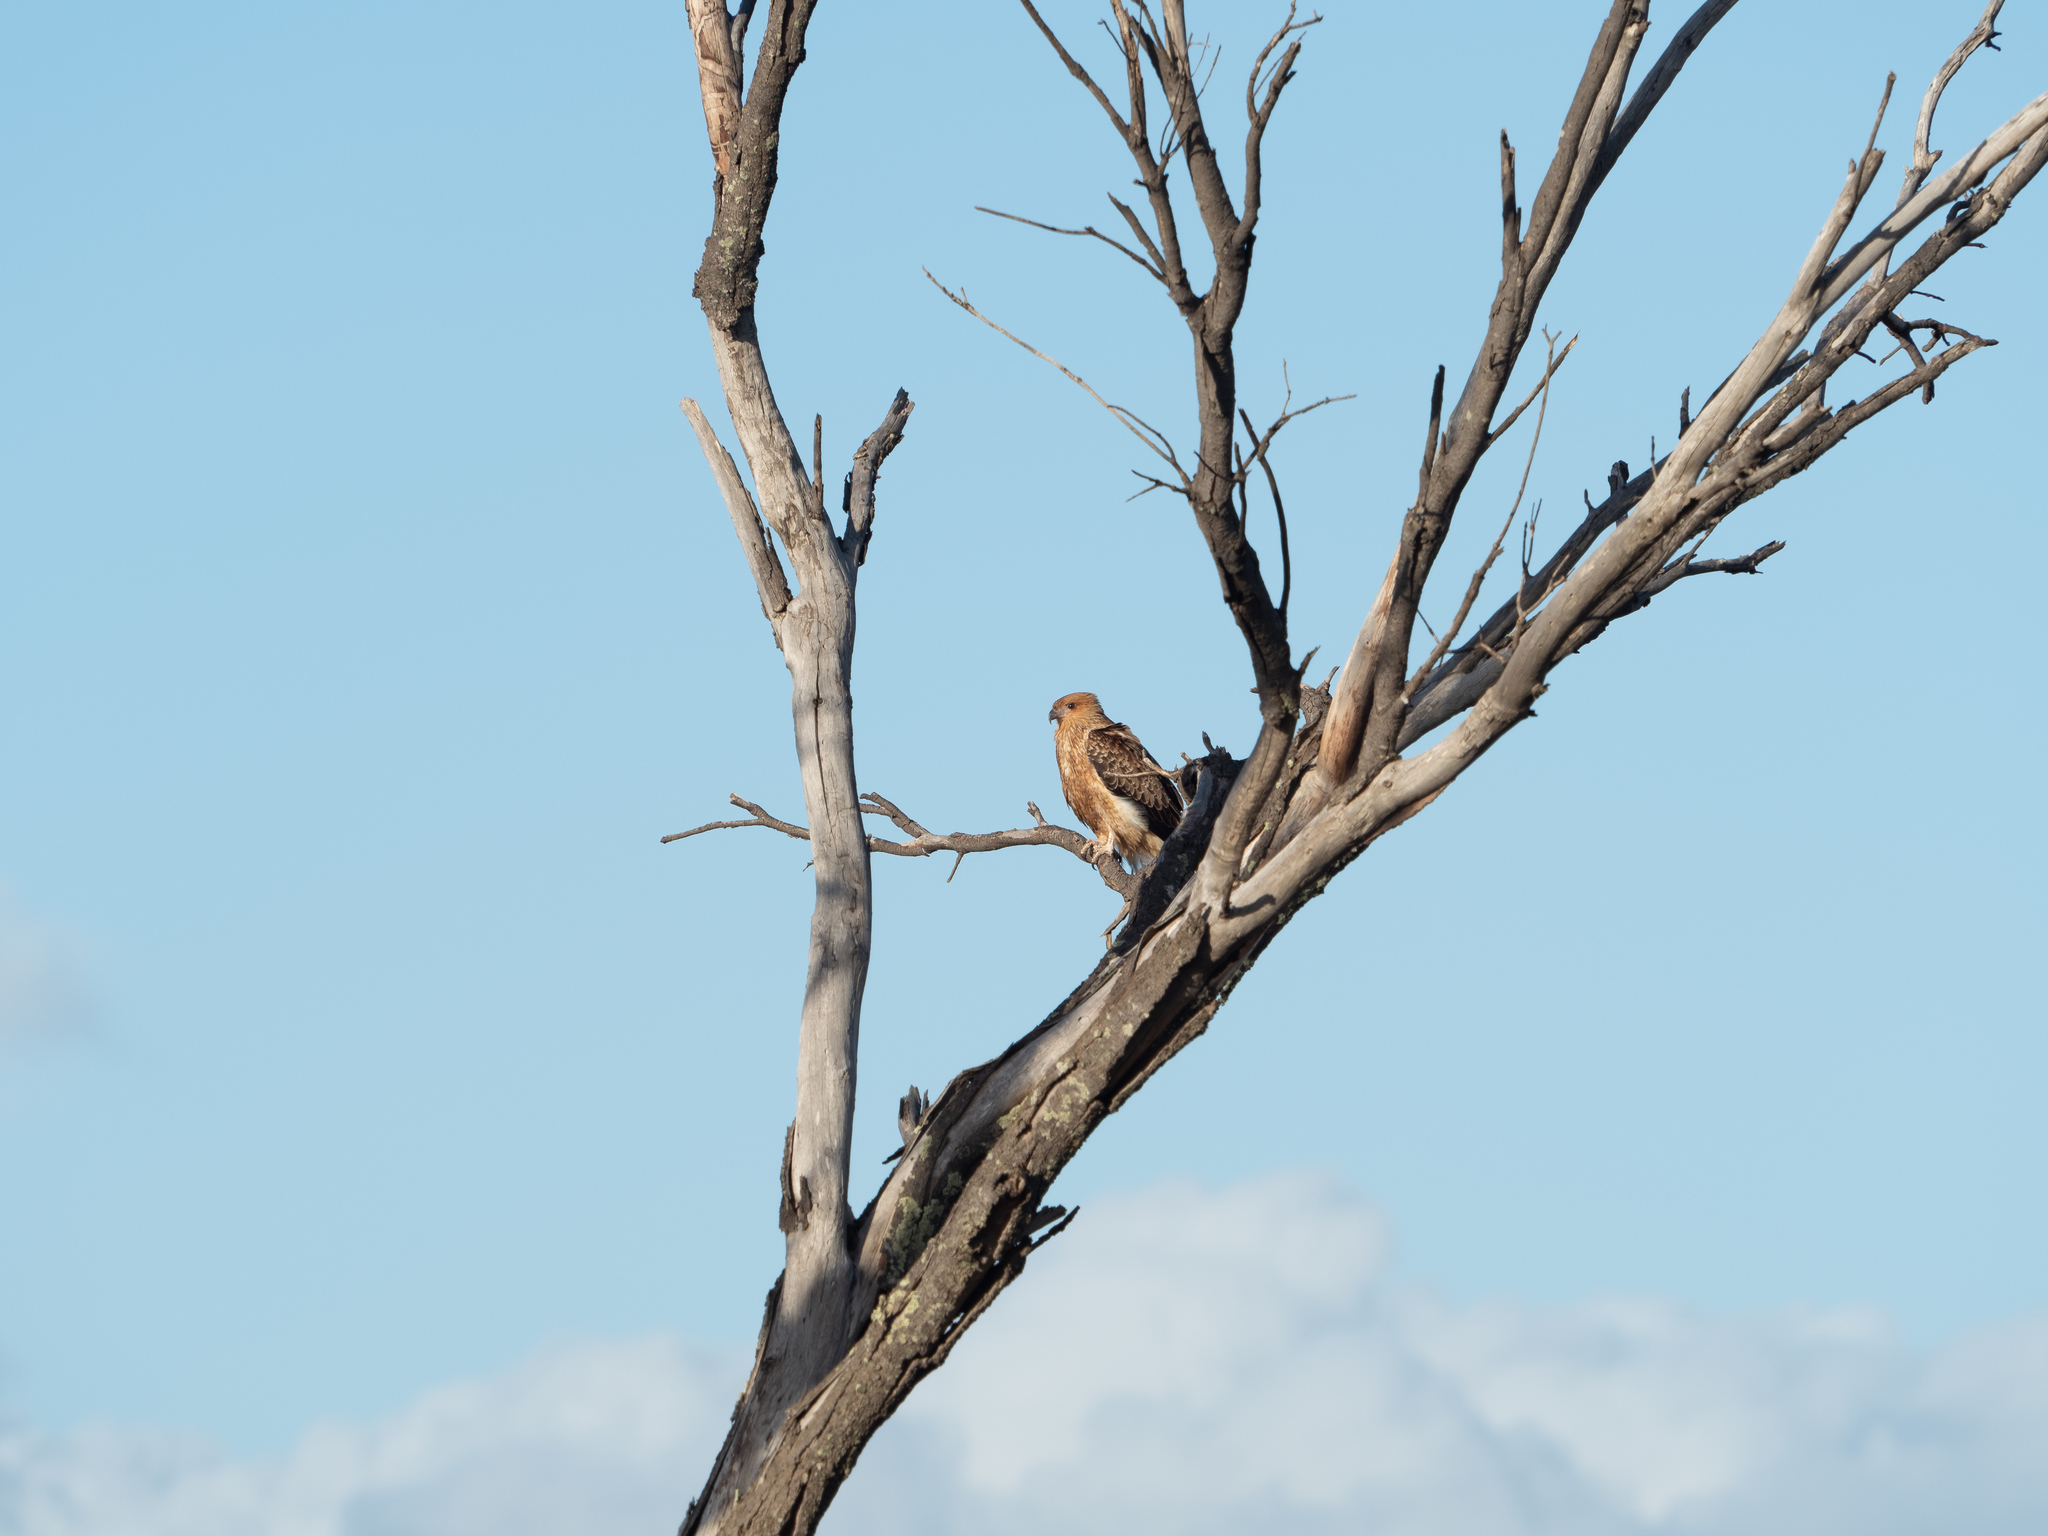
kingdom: Animalia
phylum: Chordata
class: Aves
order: Accipitriformes
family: Accipitridae
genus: Haliastur
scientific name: Haliastur sphenurus
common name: Whistling kite
